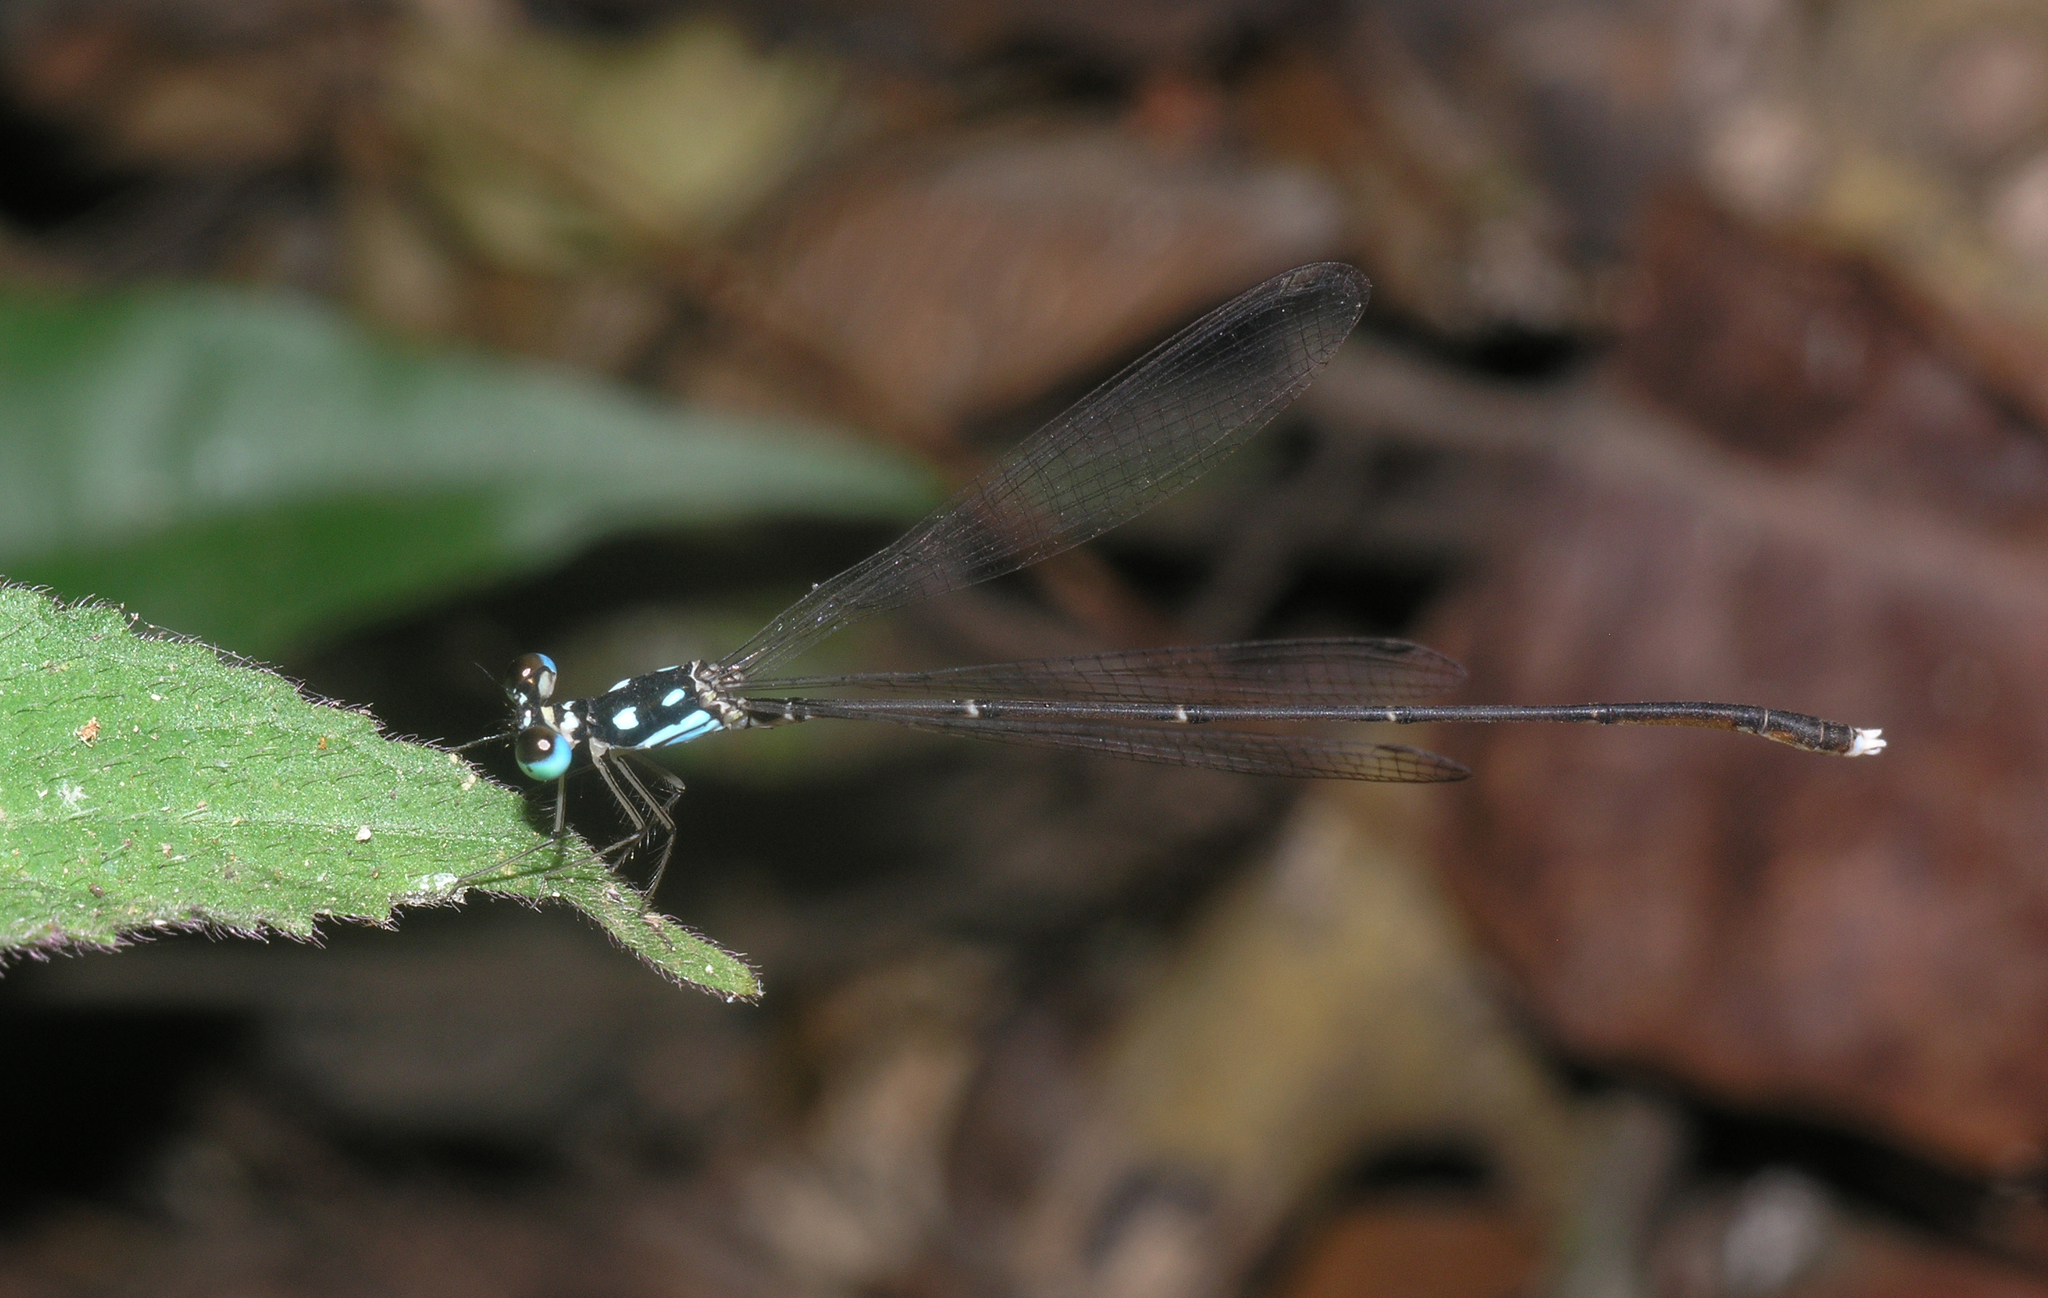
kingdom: Animalia
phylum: Arthropoda
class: Insecta
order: Odonata
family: Platycnemididae
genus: Coeliccia
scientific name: Coeliccia albicauda
